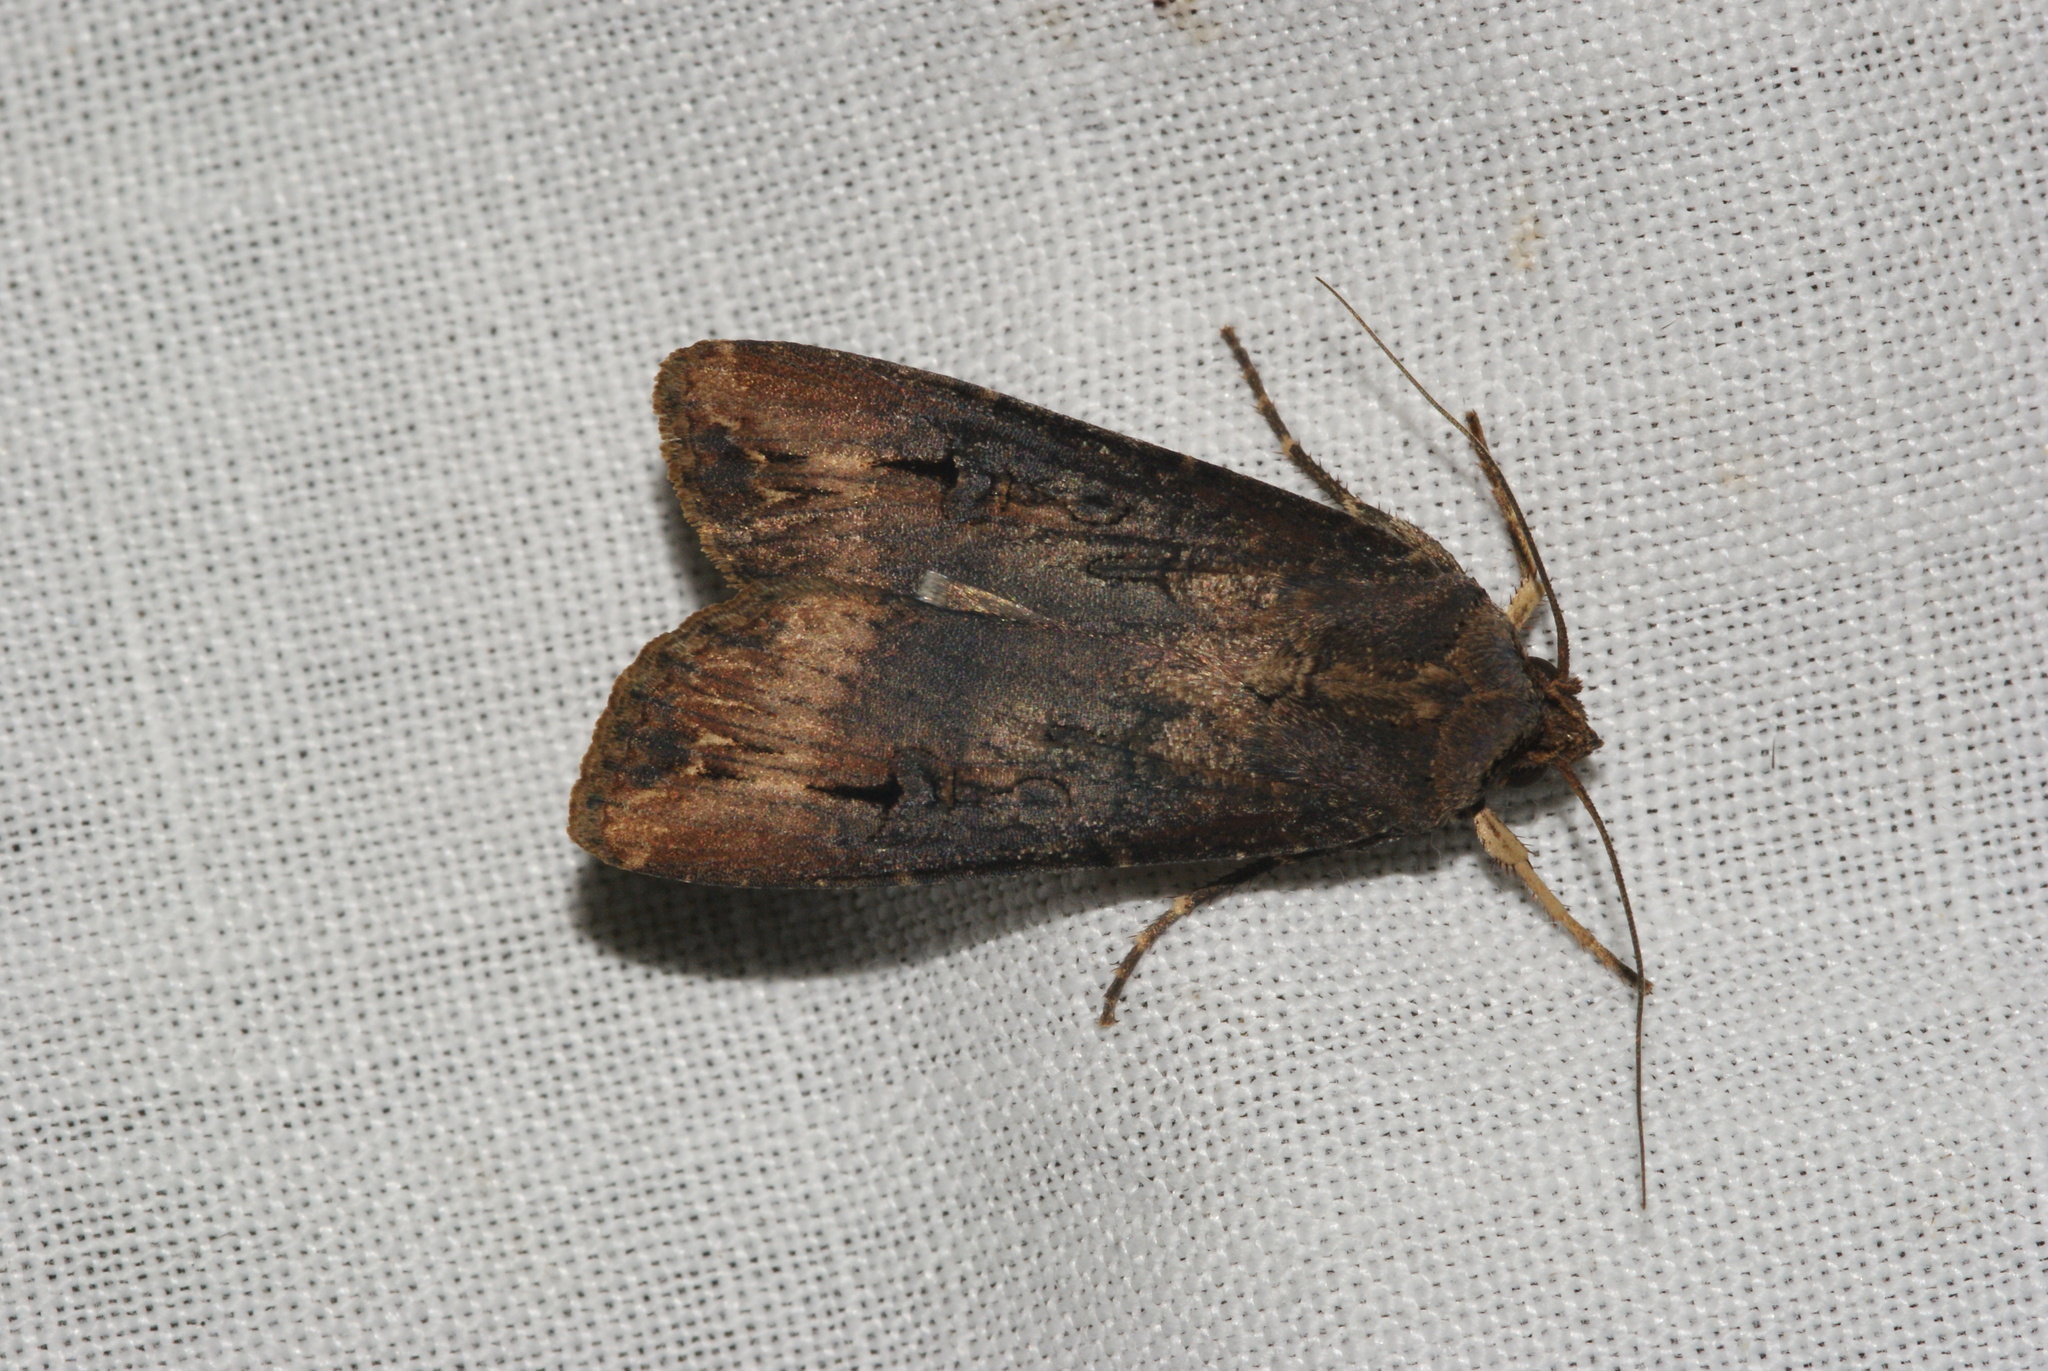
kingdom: Animalia
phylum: Arthropoda
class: Insecta
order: Lepidoptera
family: Noctuidae
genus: Agrotis
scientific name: Agrotis ipsilon
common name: Dark sword-grass
